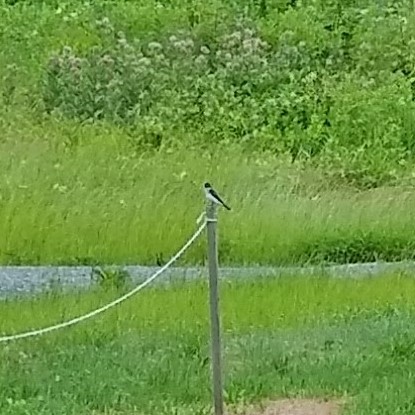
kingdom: Animalia
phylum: Chordata
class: Aves
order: Passeriformes
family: Tyrannidae
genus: Tyrannus
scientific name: Tyrannus tyrannus
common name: Eastern kingbird
